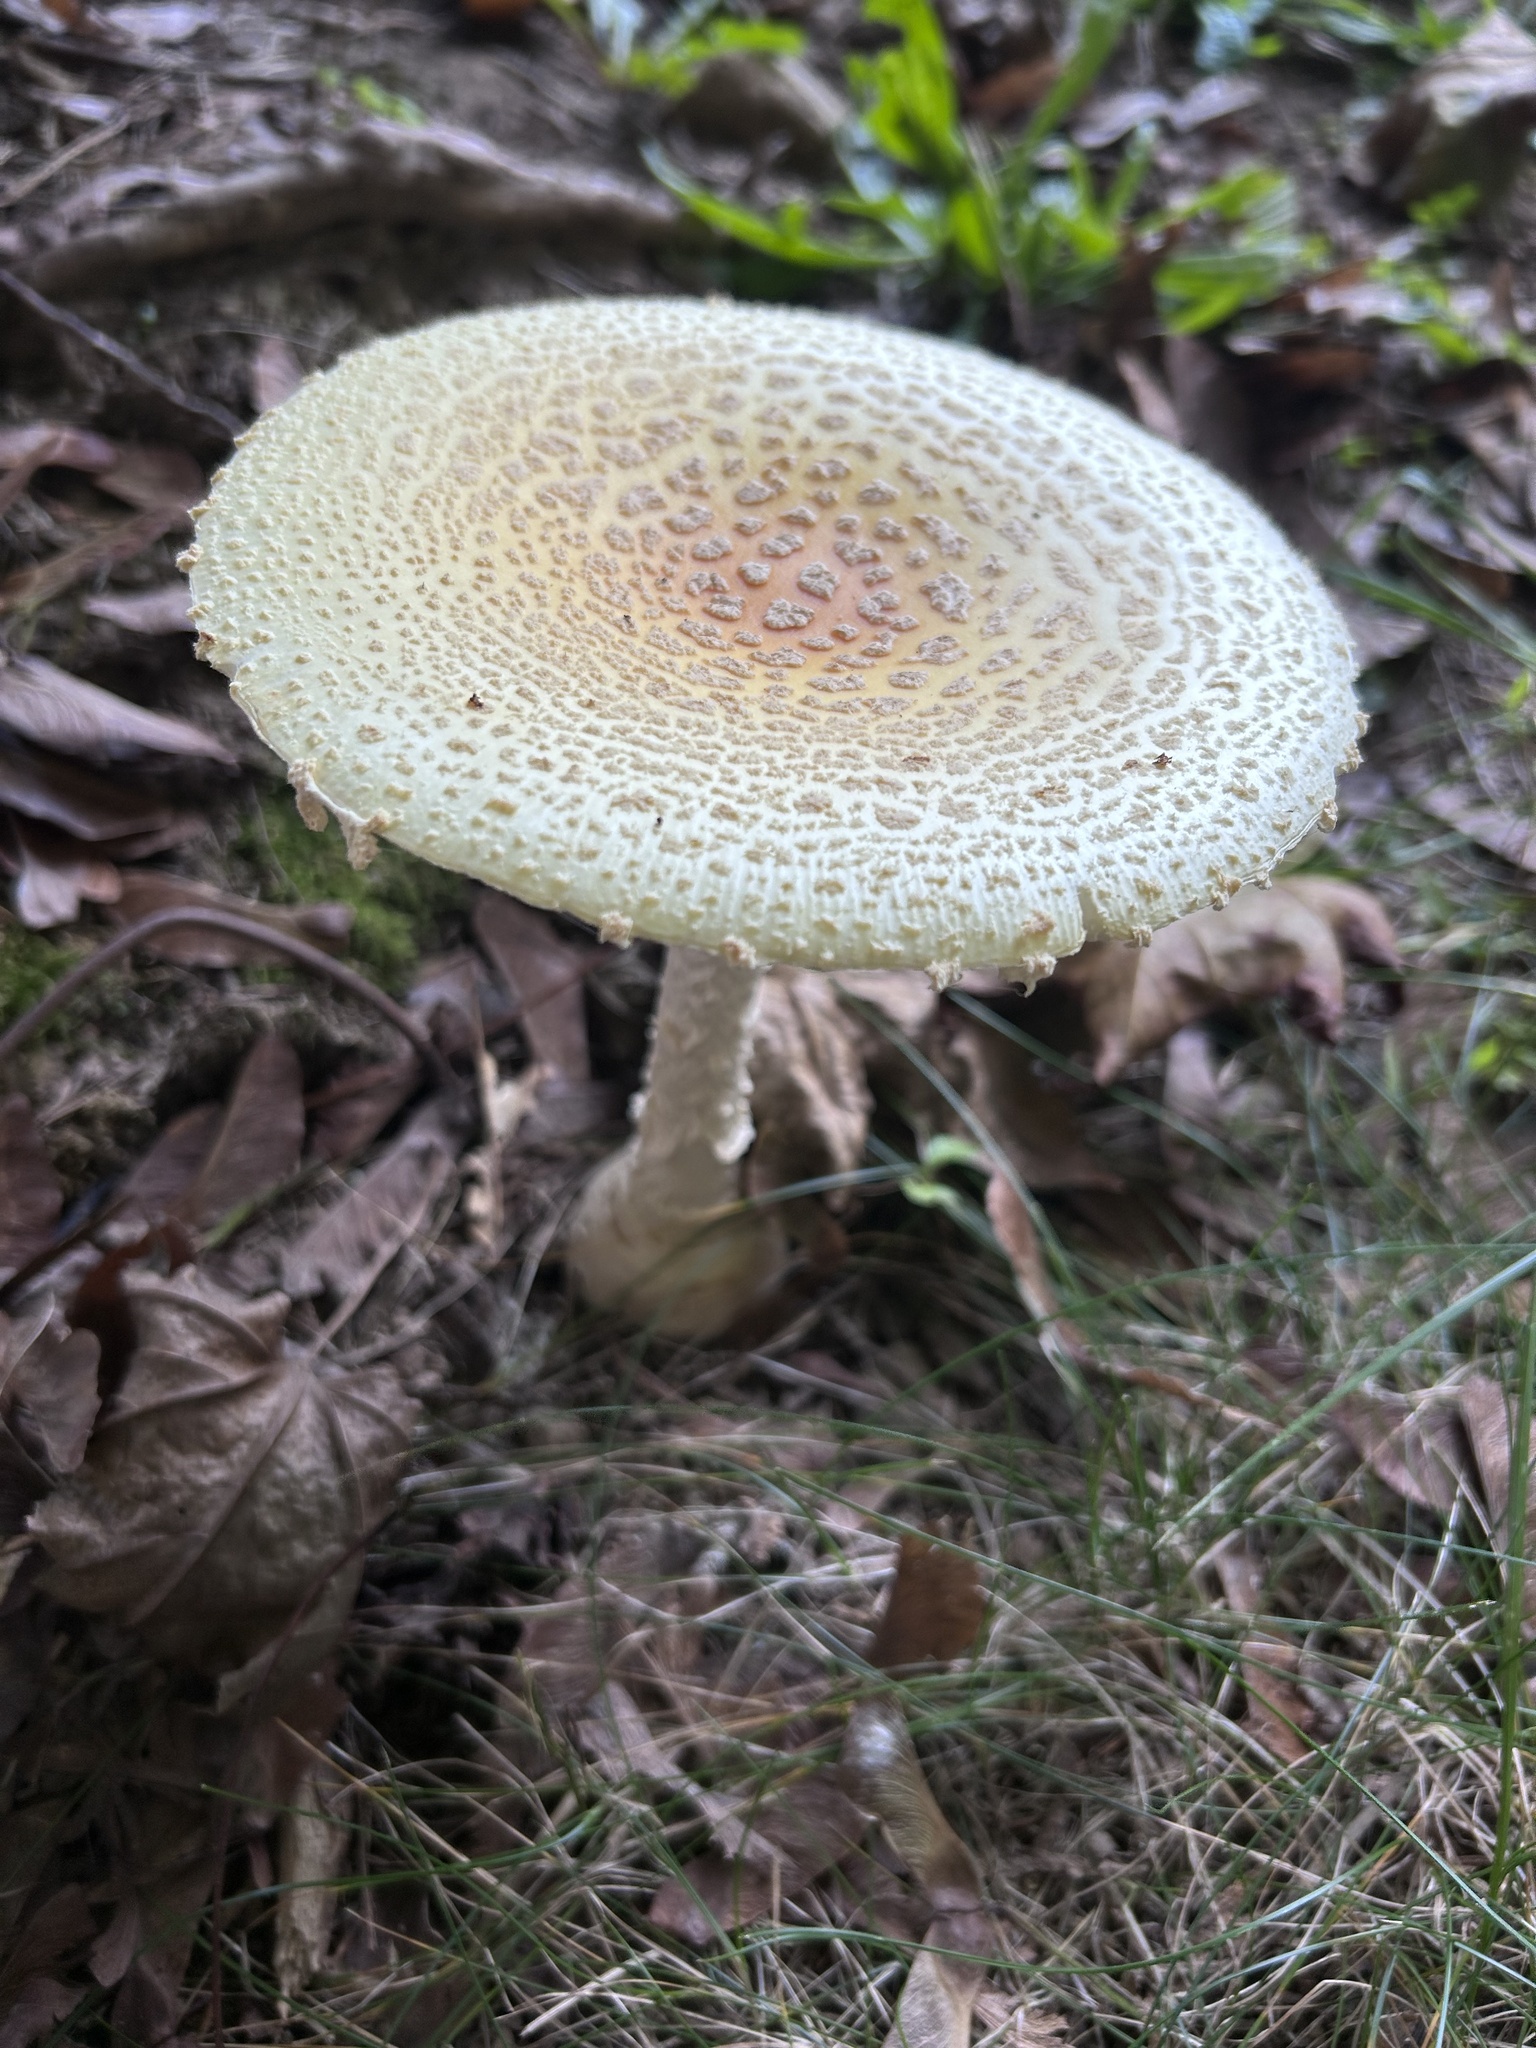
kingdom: Fungi
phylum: Basidiomycota
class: Agaricomycetes
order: Agaricales
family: Amanitaceae
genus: Amanita
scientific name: Amanita muscaria
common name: Fly agaric
